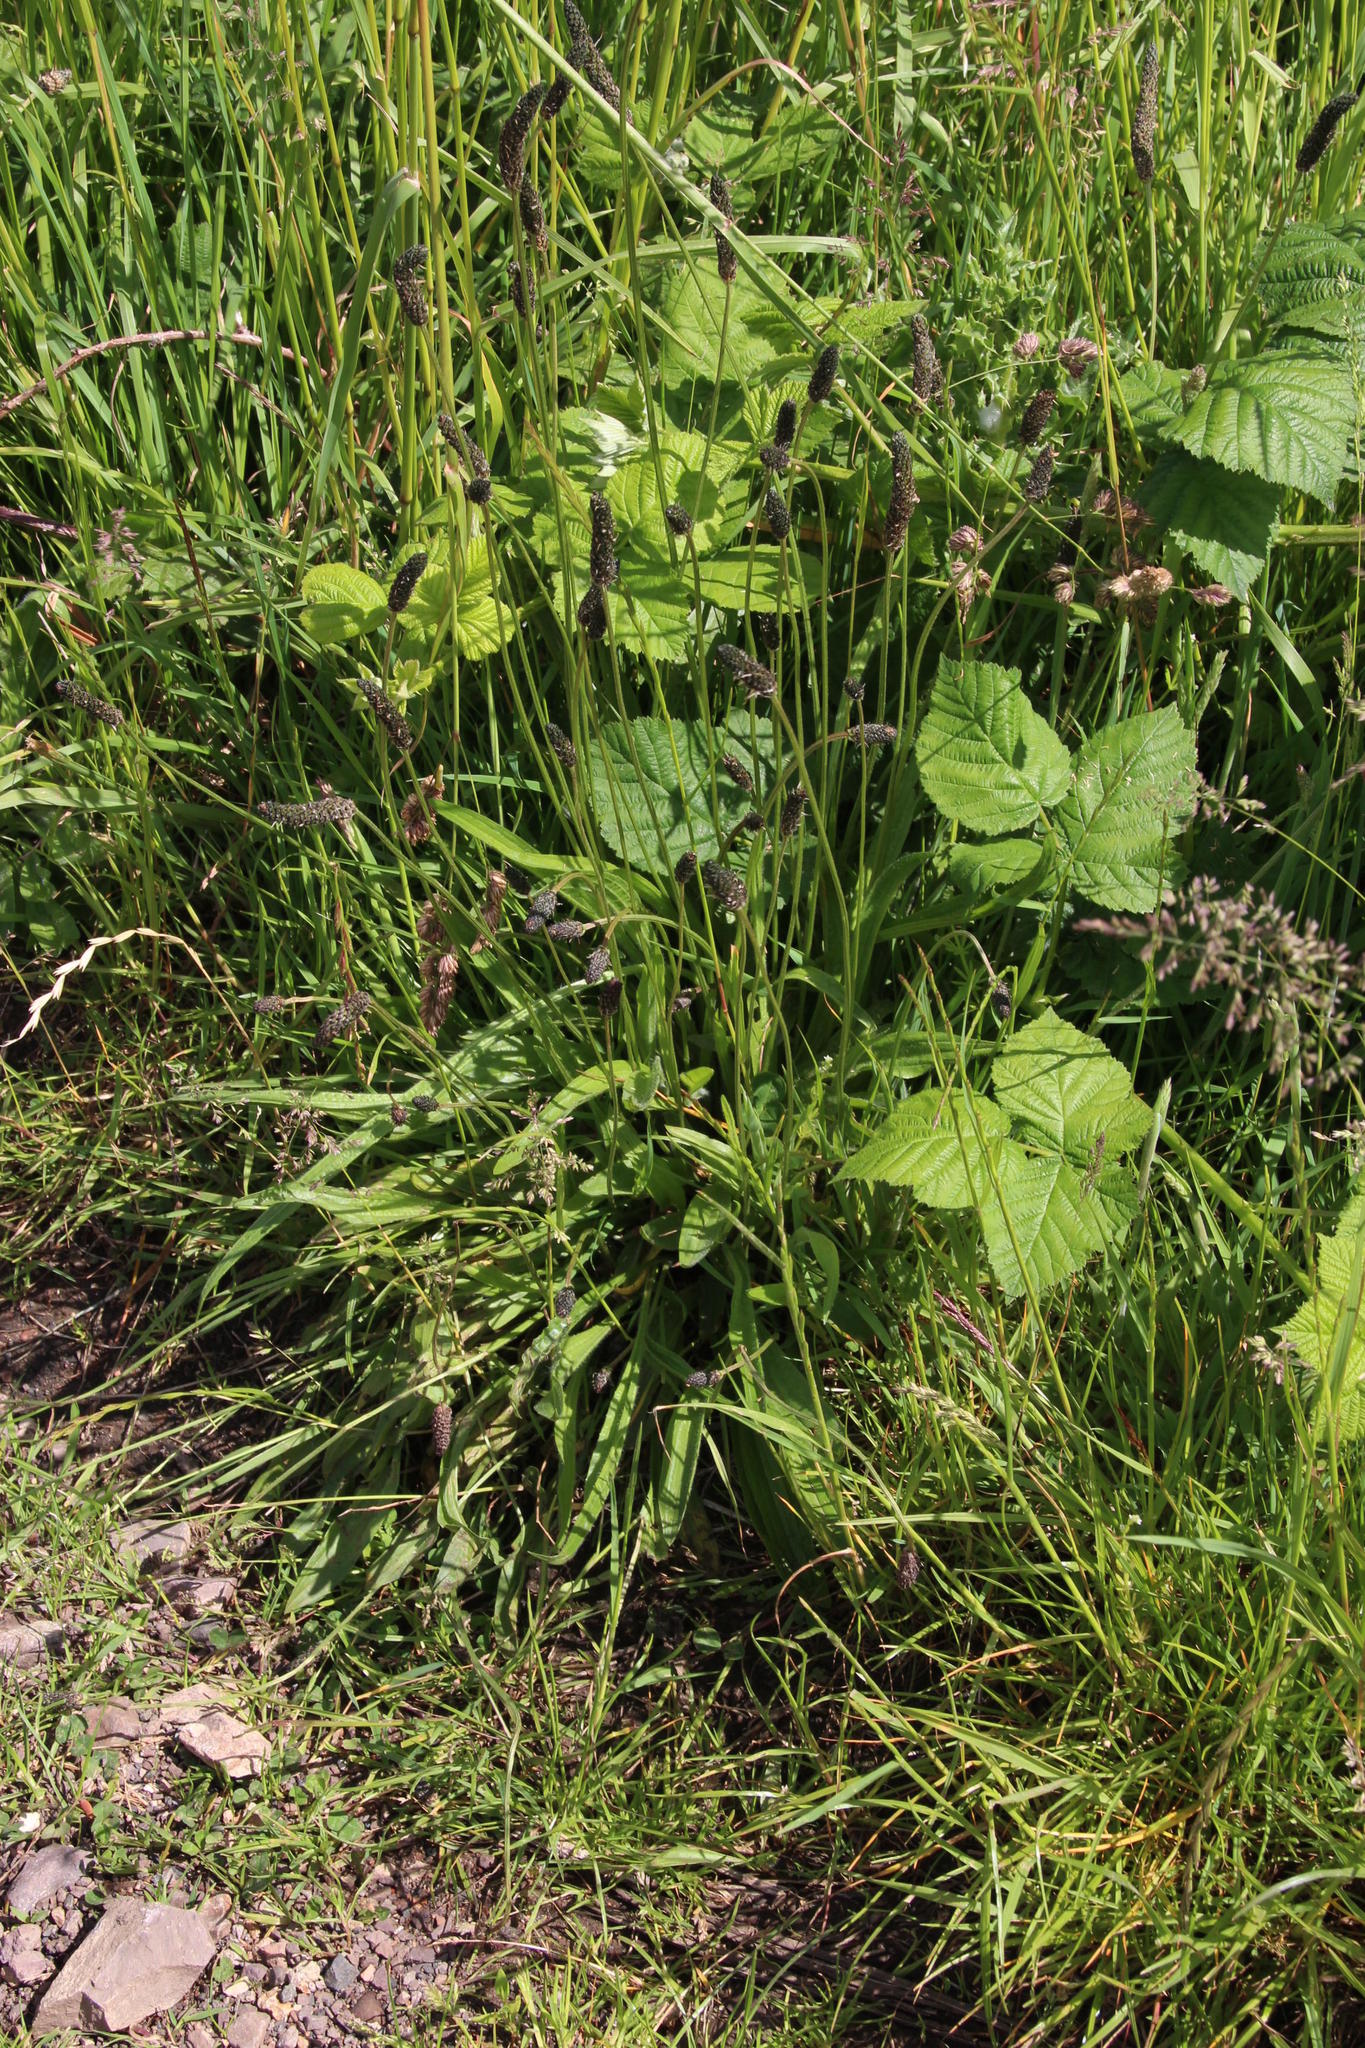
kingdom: Plantae
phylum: Tracheophyta
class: Magnoliopsida
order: Lamiales
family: Plantaginaceae
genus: Plantago
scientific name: Plantago lanceolata
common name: Ribwort plantain
